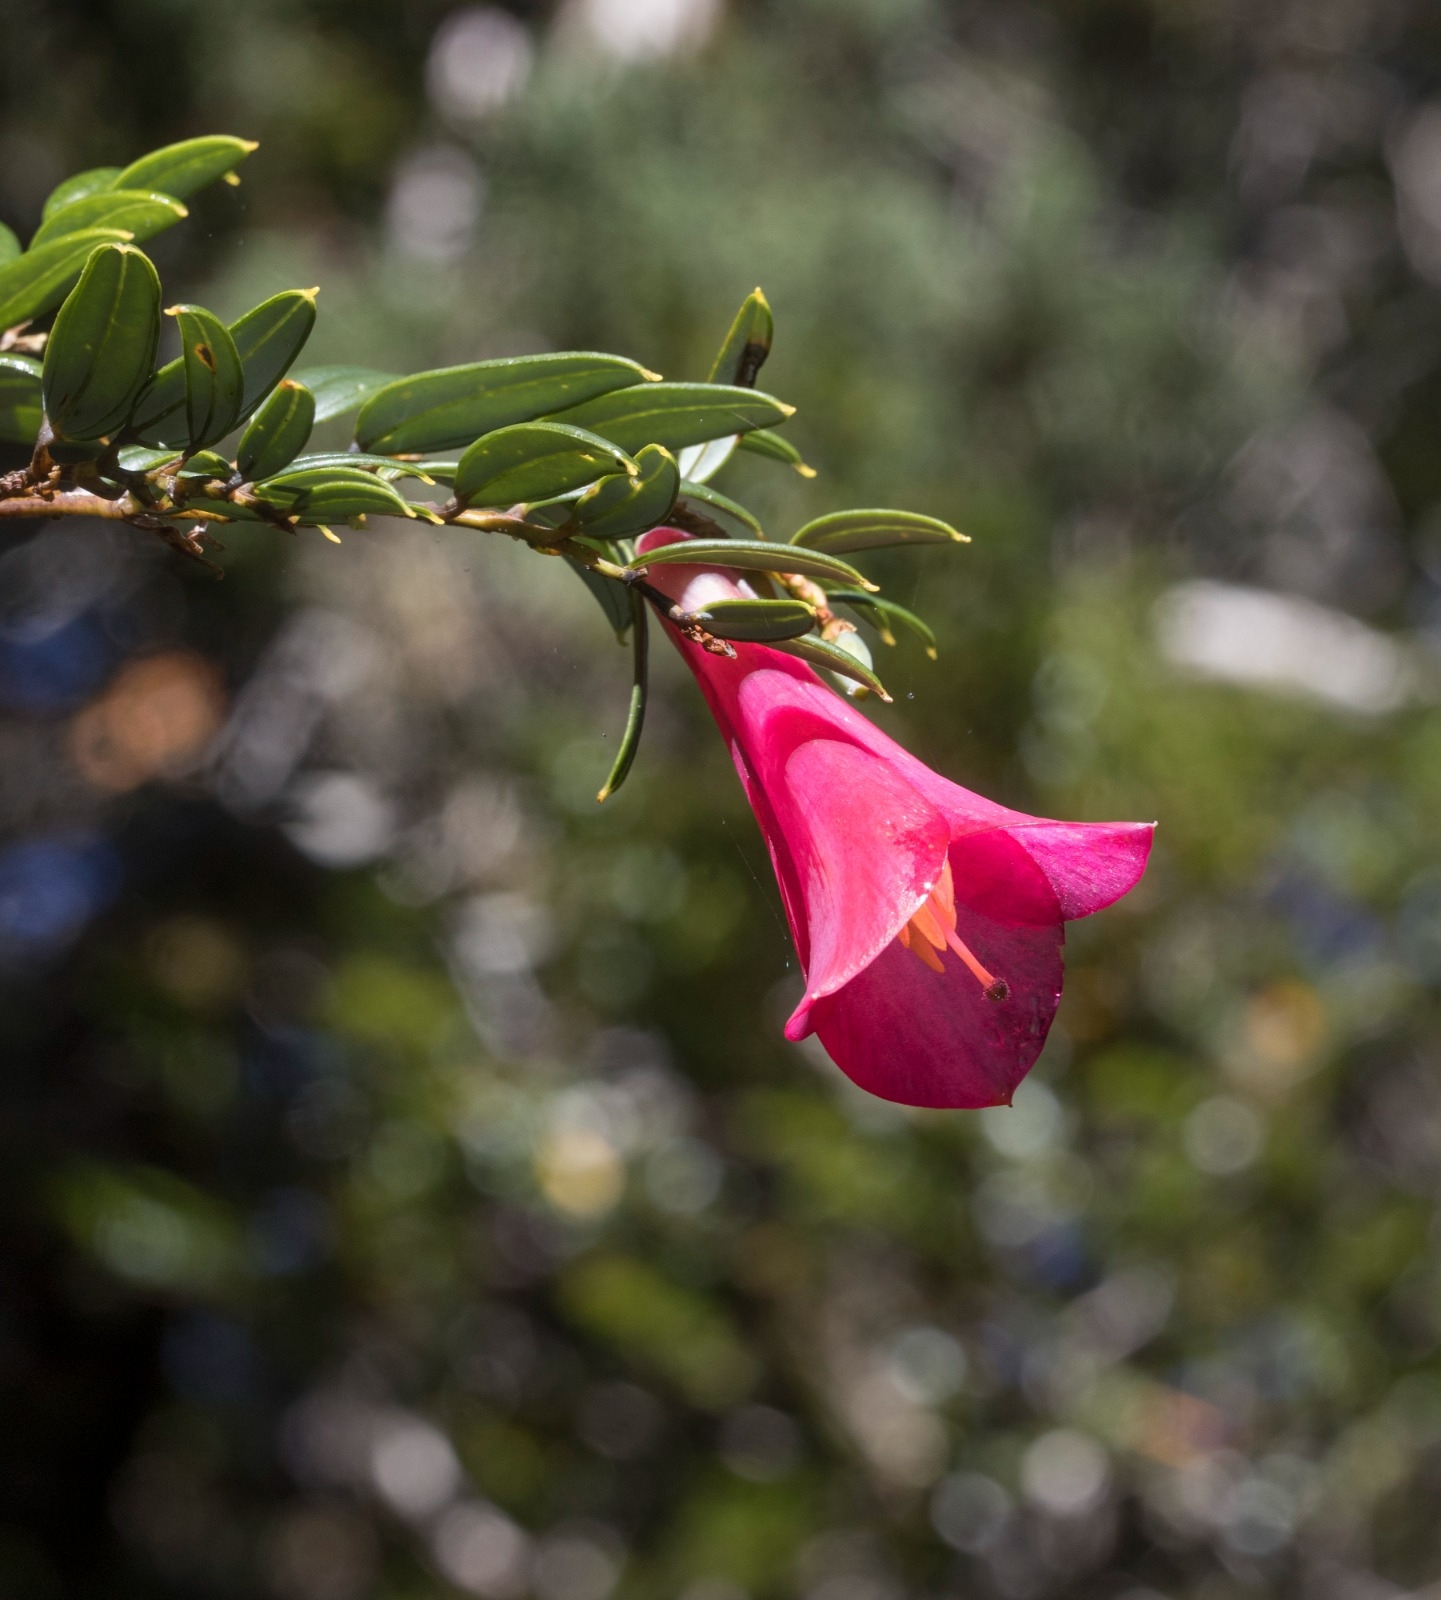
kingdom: Plantae
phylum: Tracheophyta
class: Liliopsida
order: Liliales
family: Philesiaceae
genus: Philesia
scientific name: Philesia magellanica
